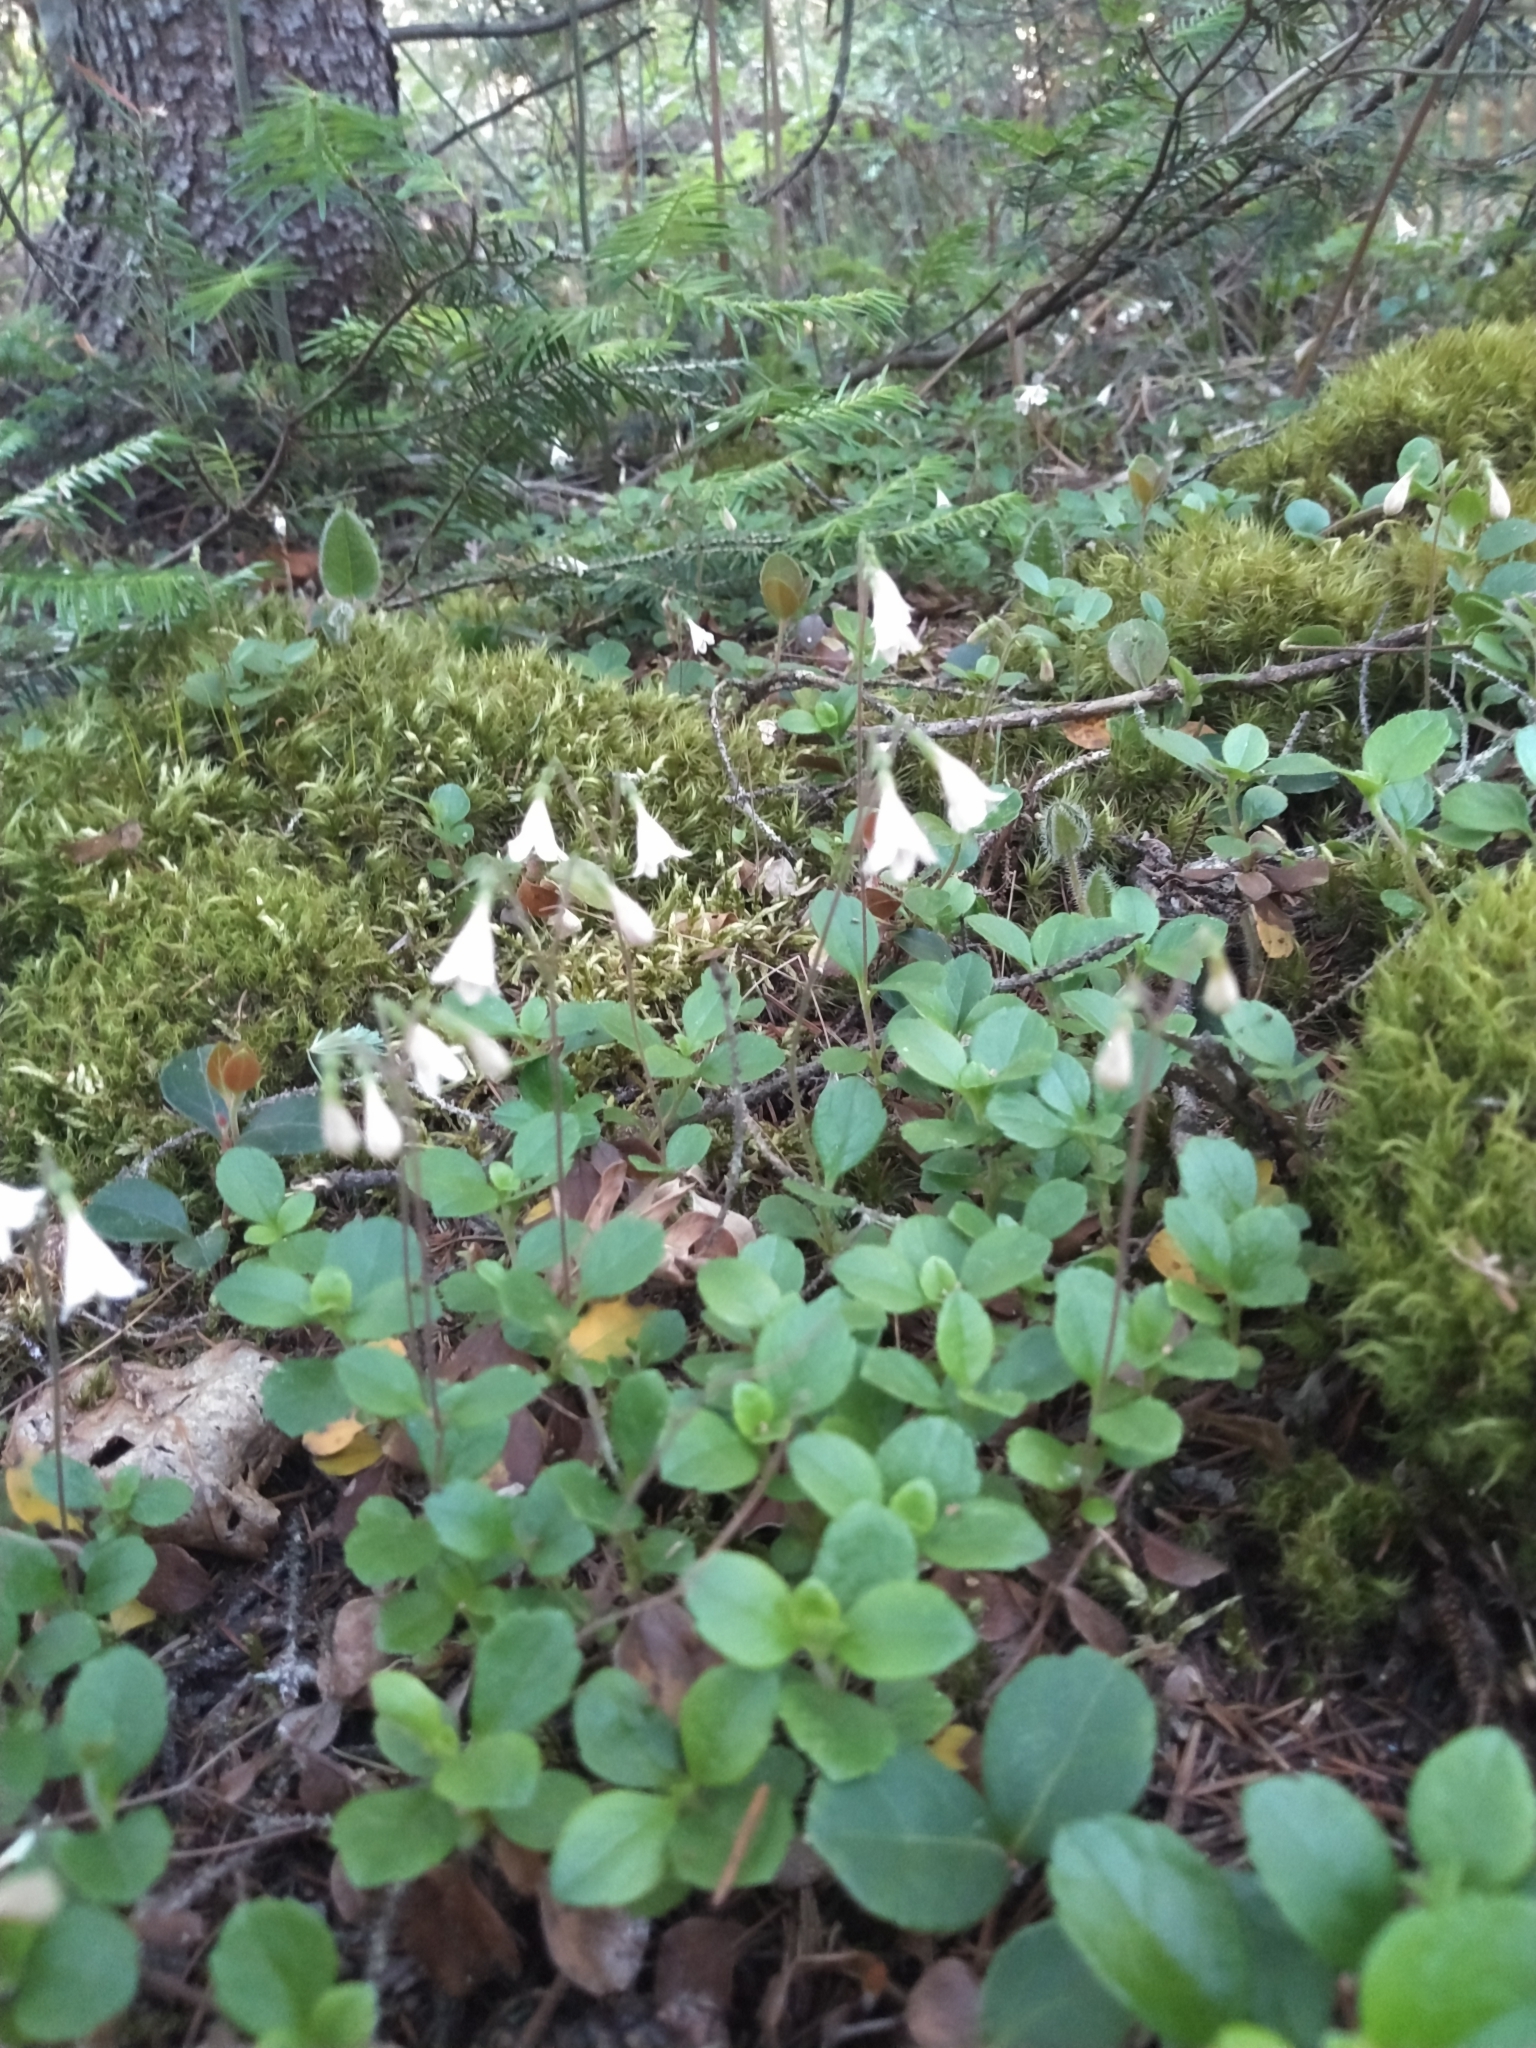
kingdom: Plantae
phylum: Tracheophyta
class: Magnoliopsida
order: Dipsacales
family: Caprifoliaceae
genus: Linnaea
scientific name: Linnaea borealis
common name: Twinflower
